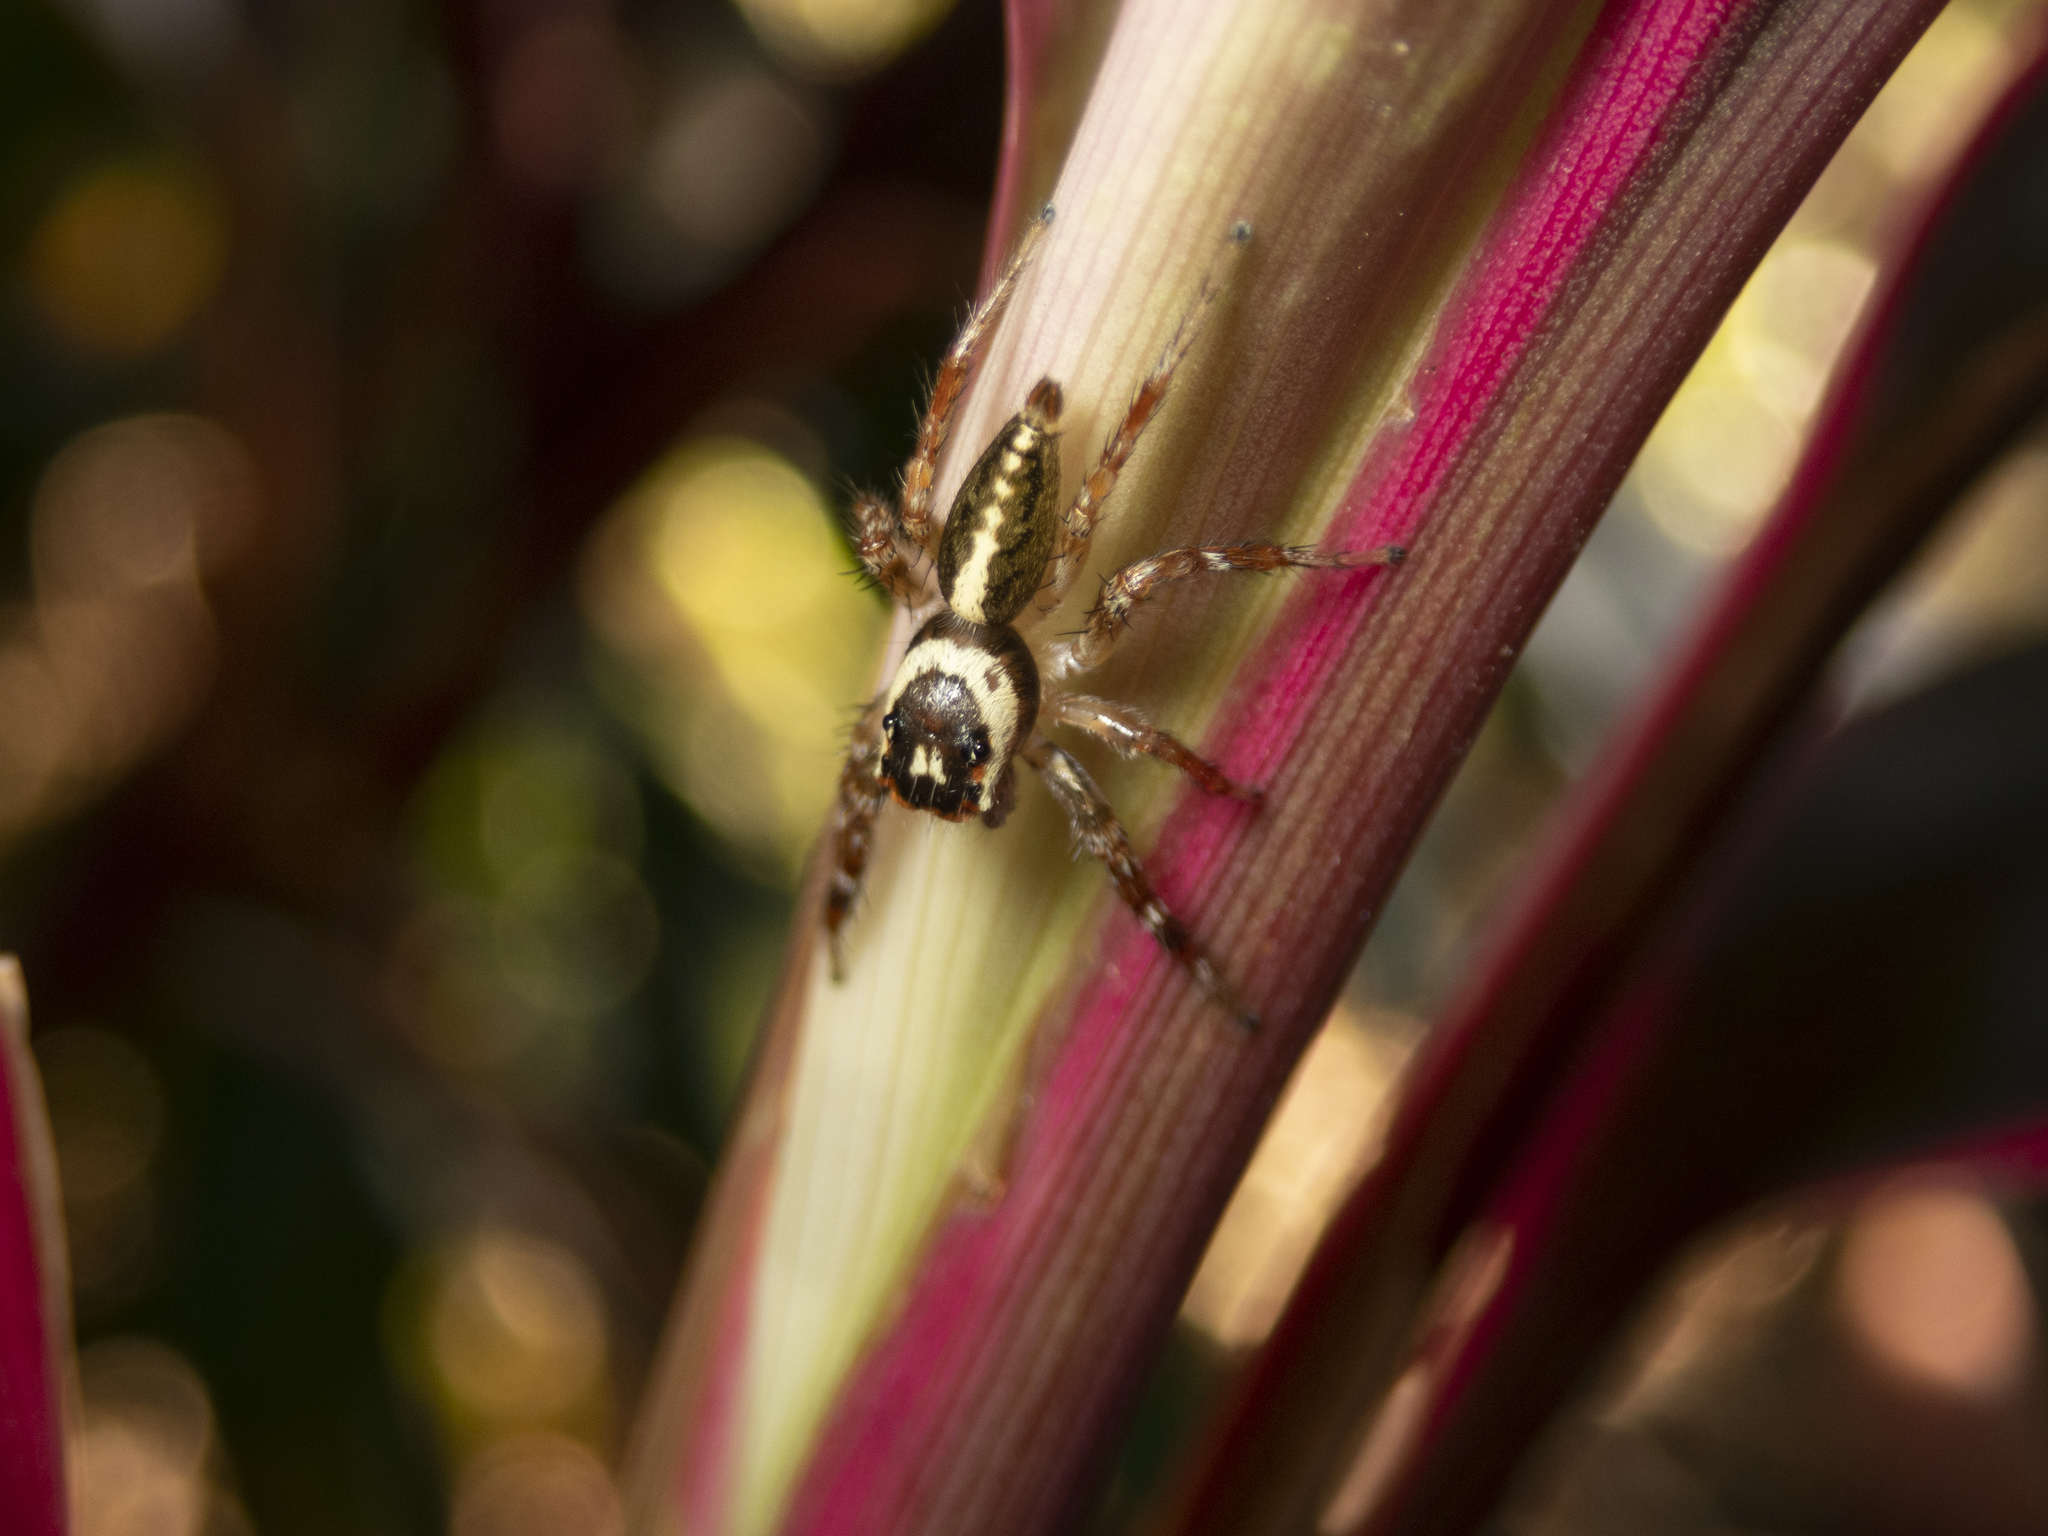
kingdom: Animalia
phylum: Arthropoda
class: Arachnida
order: Araneae
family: Salticidae
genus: Telamonia
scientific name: Telamonia caprina
